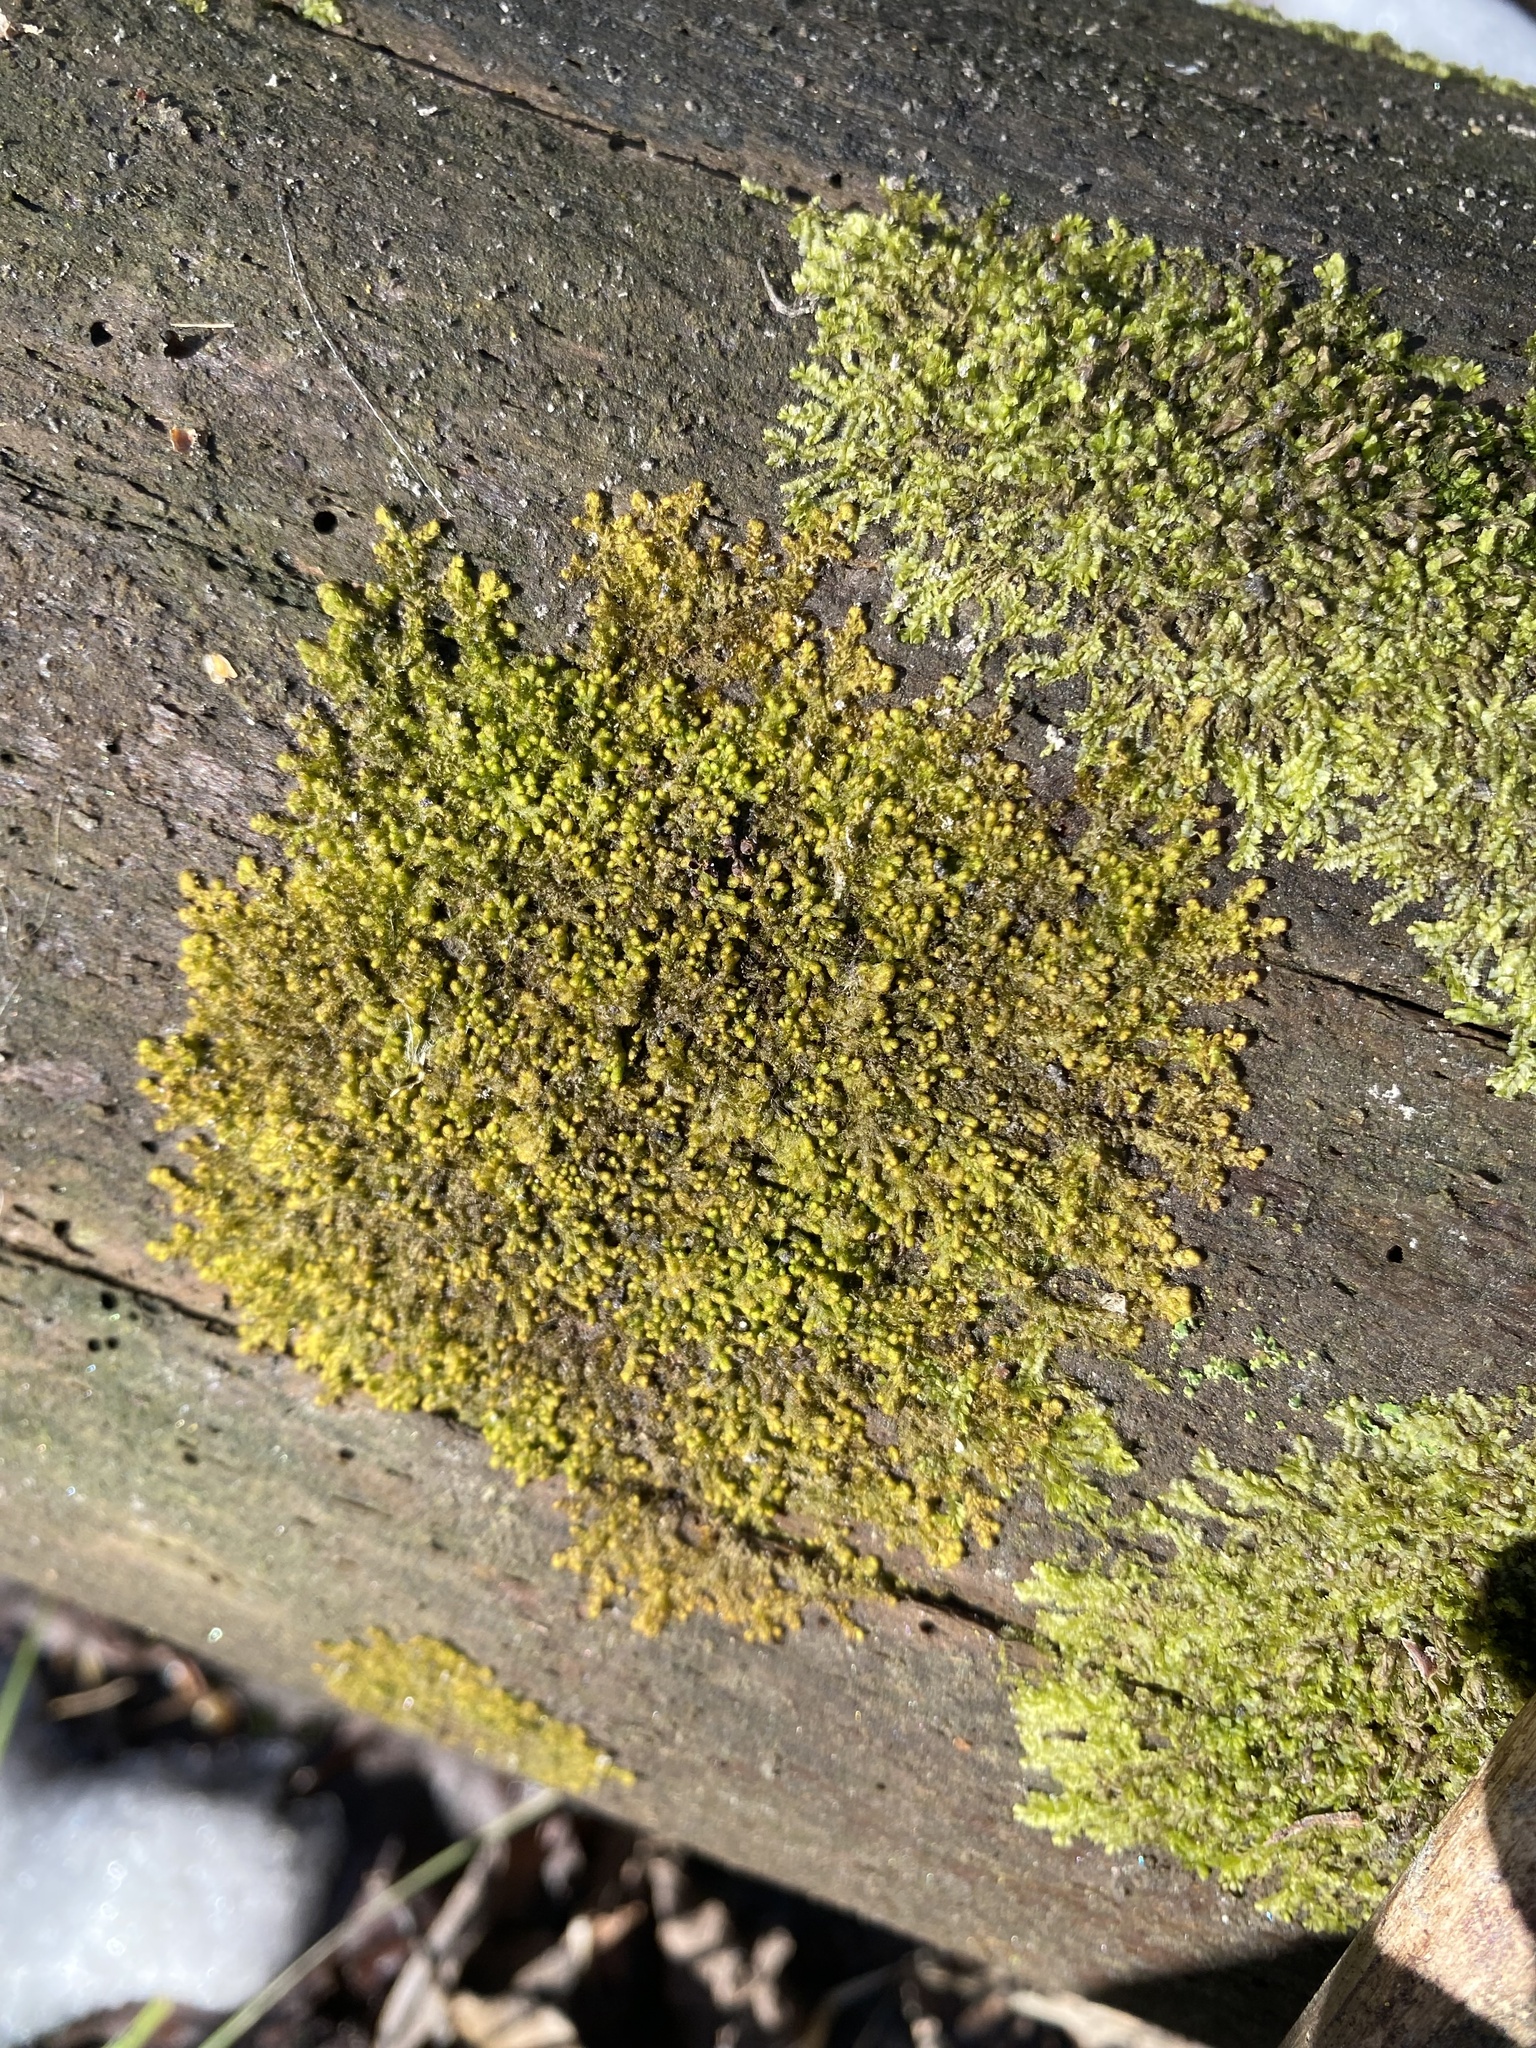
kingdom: Plantae
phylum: Marchantiophyta
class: Jungermanniopsida
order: Jungermanniales
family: Lophocoleaceae
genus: Lophocolea
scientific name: Lophocolea heterophylla
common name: Variable-leaved crestwort
